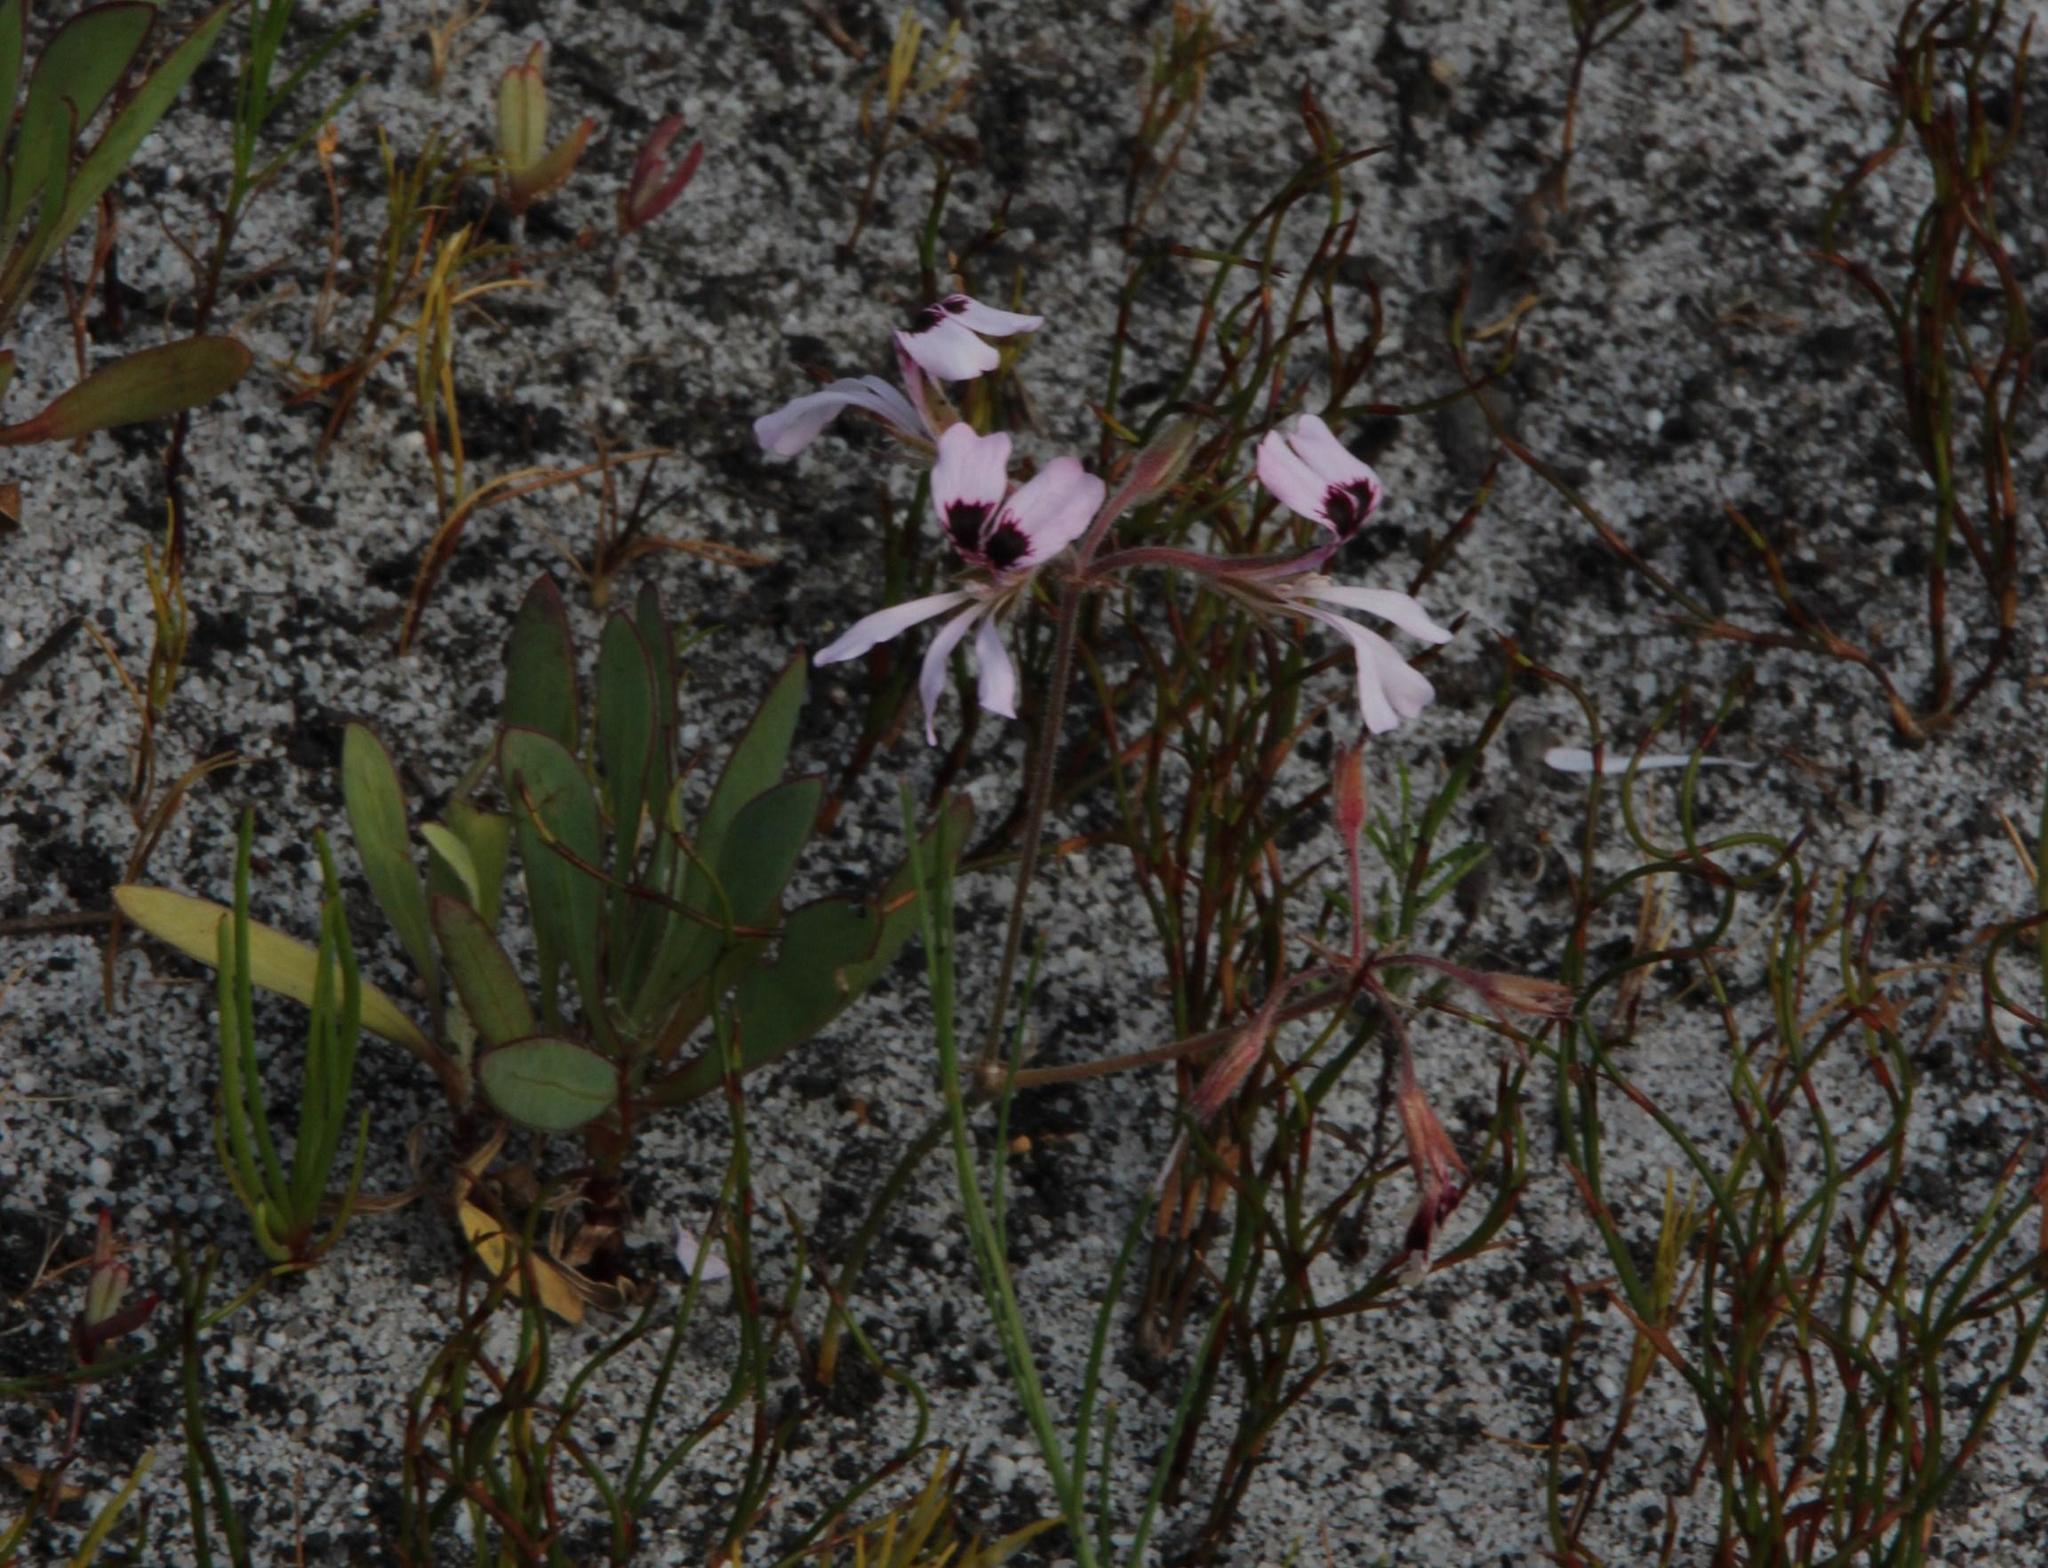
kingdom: Plantae
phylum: Tracheophyta
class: Magnoliopsida
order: Geraniales
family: Geraniaceae
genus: Pelargonium
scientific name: Pelargonium psammophilum
